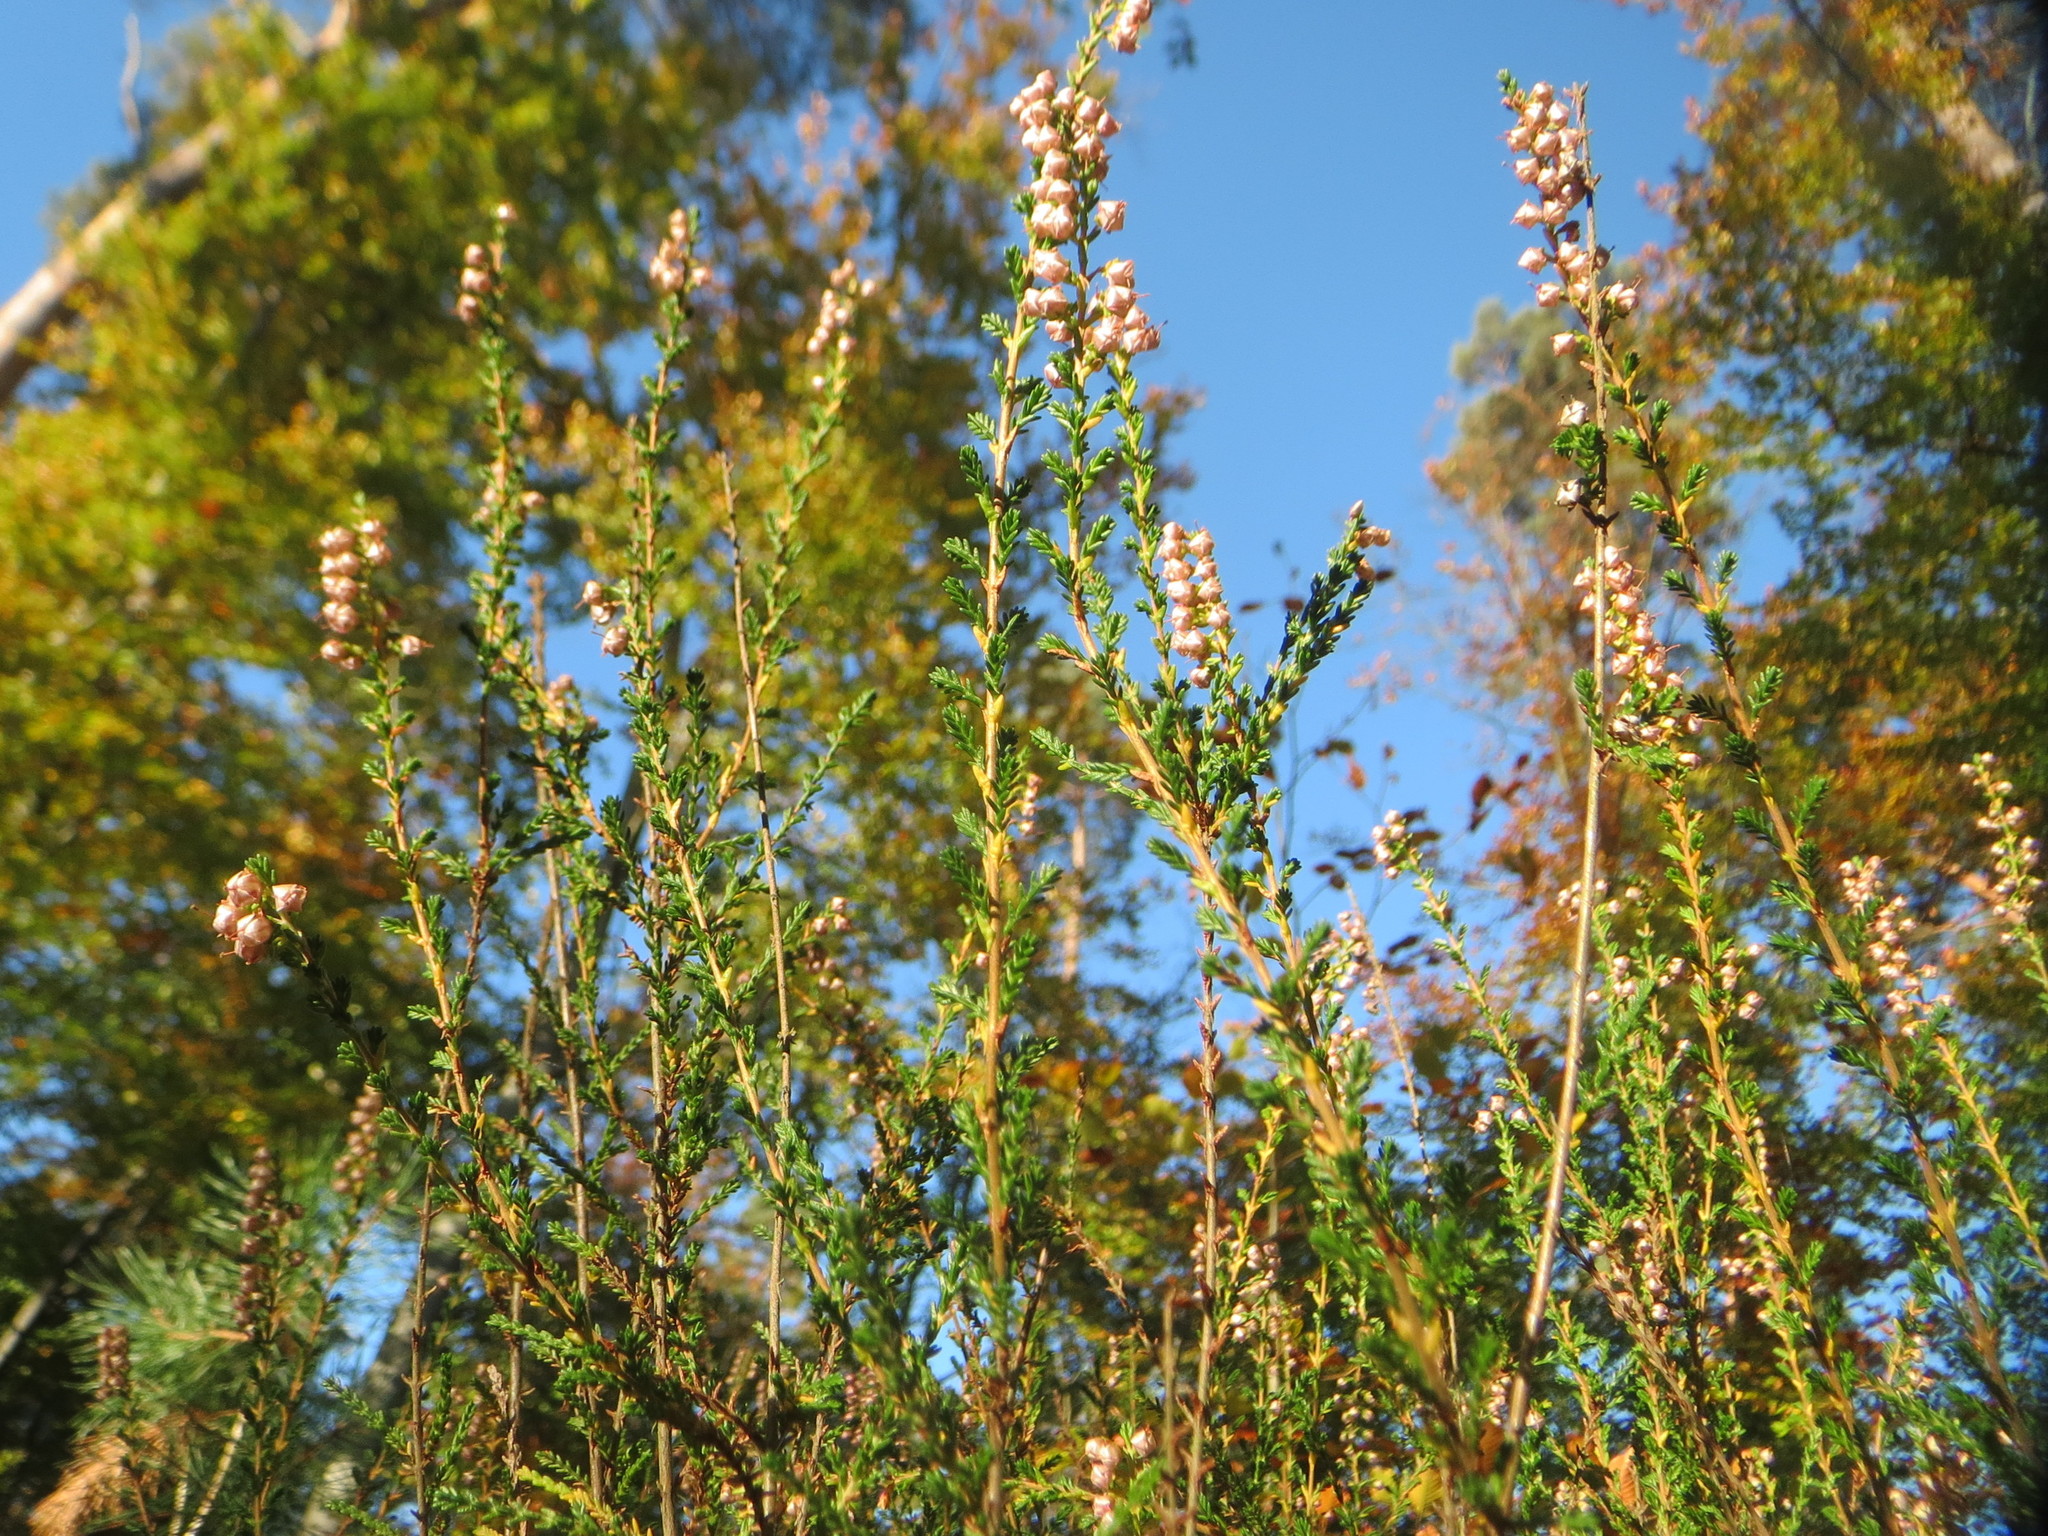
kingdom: Plantae
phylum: Tracheophyta
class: Magnoliopsida
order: Ericales
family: Ericaceae
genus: Calluna
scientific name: Calluna vulgaris
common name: Heather
